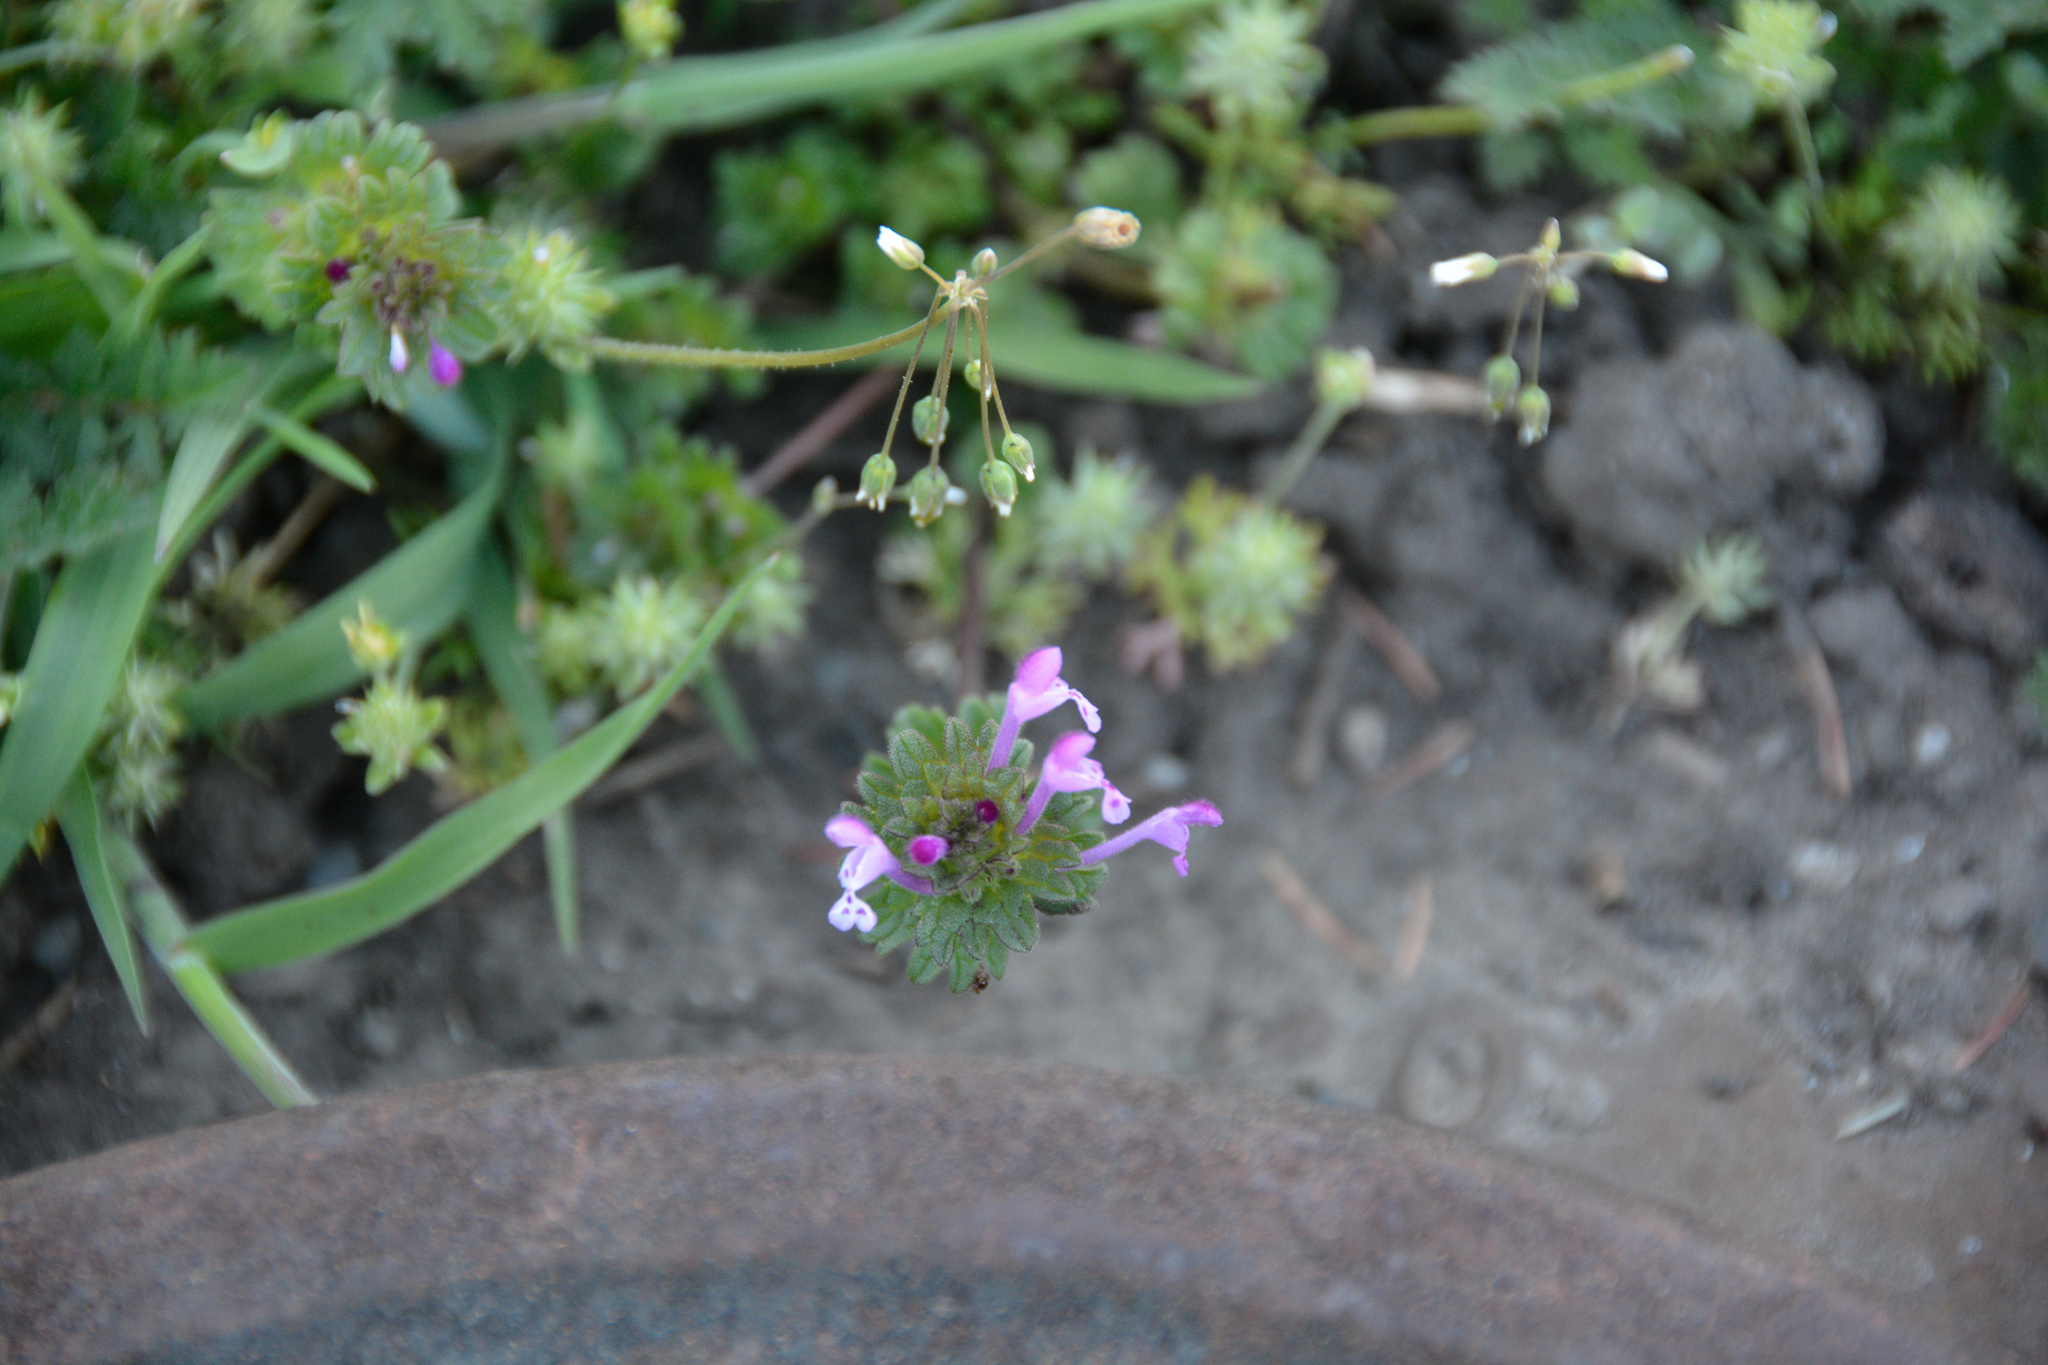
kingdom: Plantae
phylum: Tracheophyta
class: Magnoliopsida
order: Lamiales
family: Lamiaceae
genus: Lamium
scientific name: Lamium amplexicaule
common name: Henbit dead-nettle
